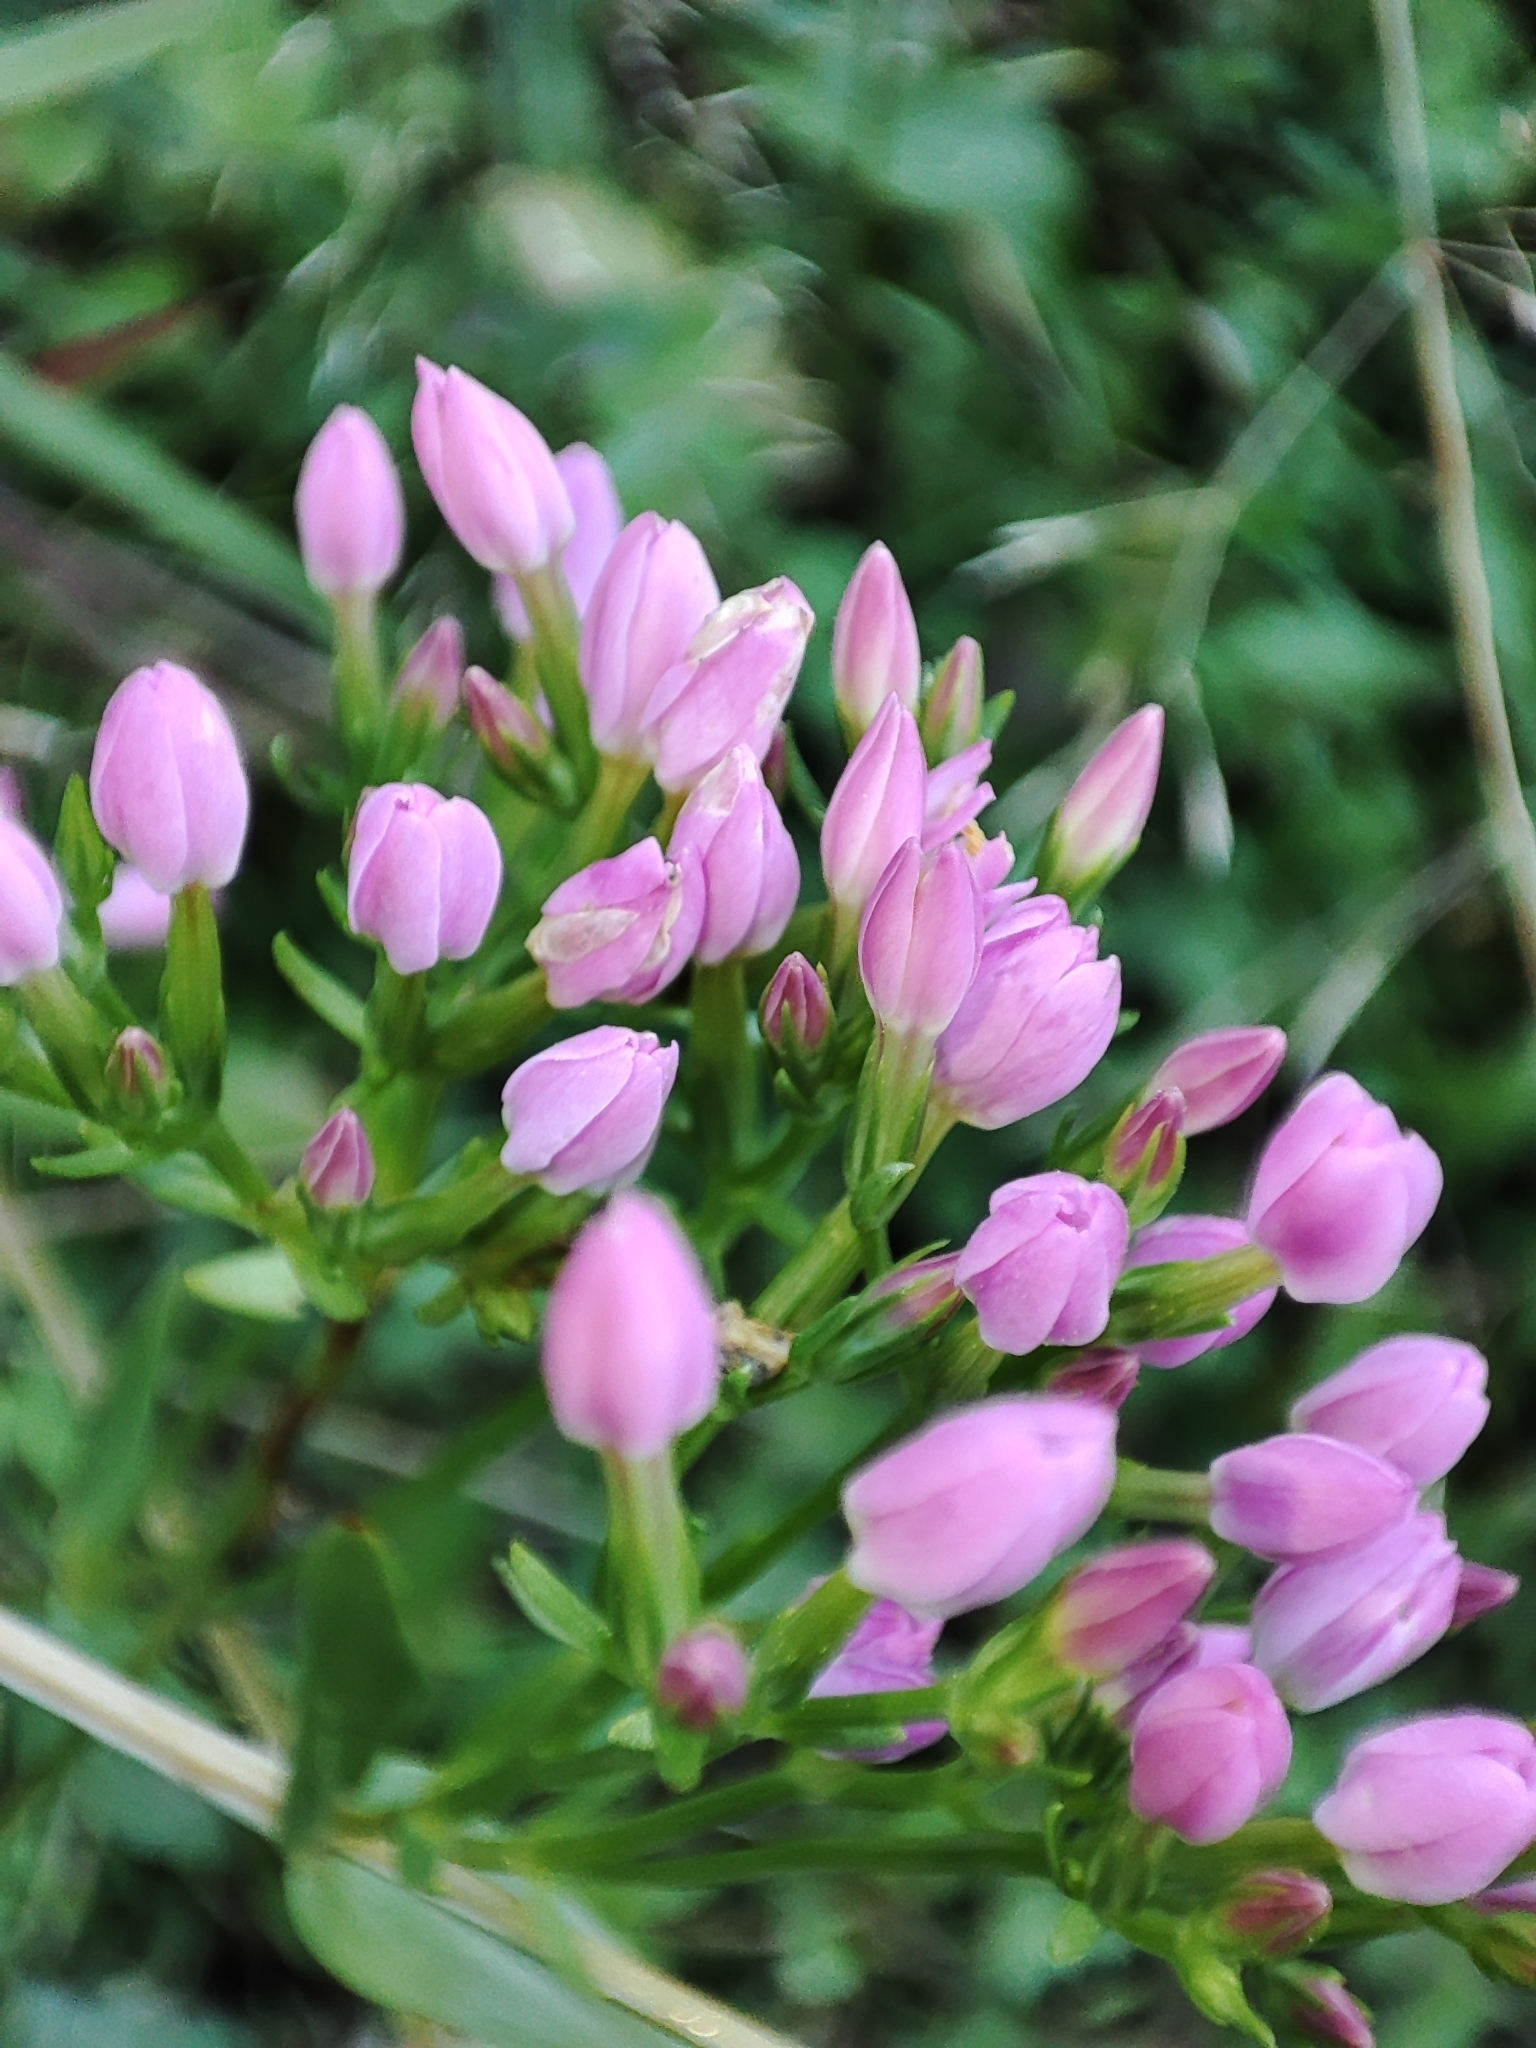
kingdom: Plantae
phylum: Tracheophyta
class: Magnoliopsida
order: Gentianales
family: Gentianaceae
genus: Centaurium
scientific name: Centaurium erythraea
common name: Common centaury
